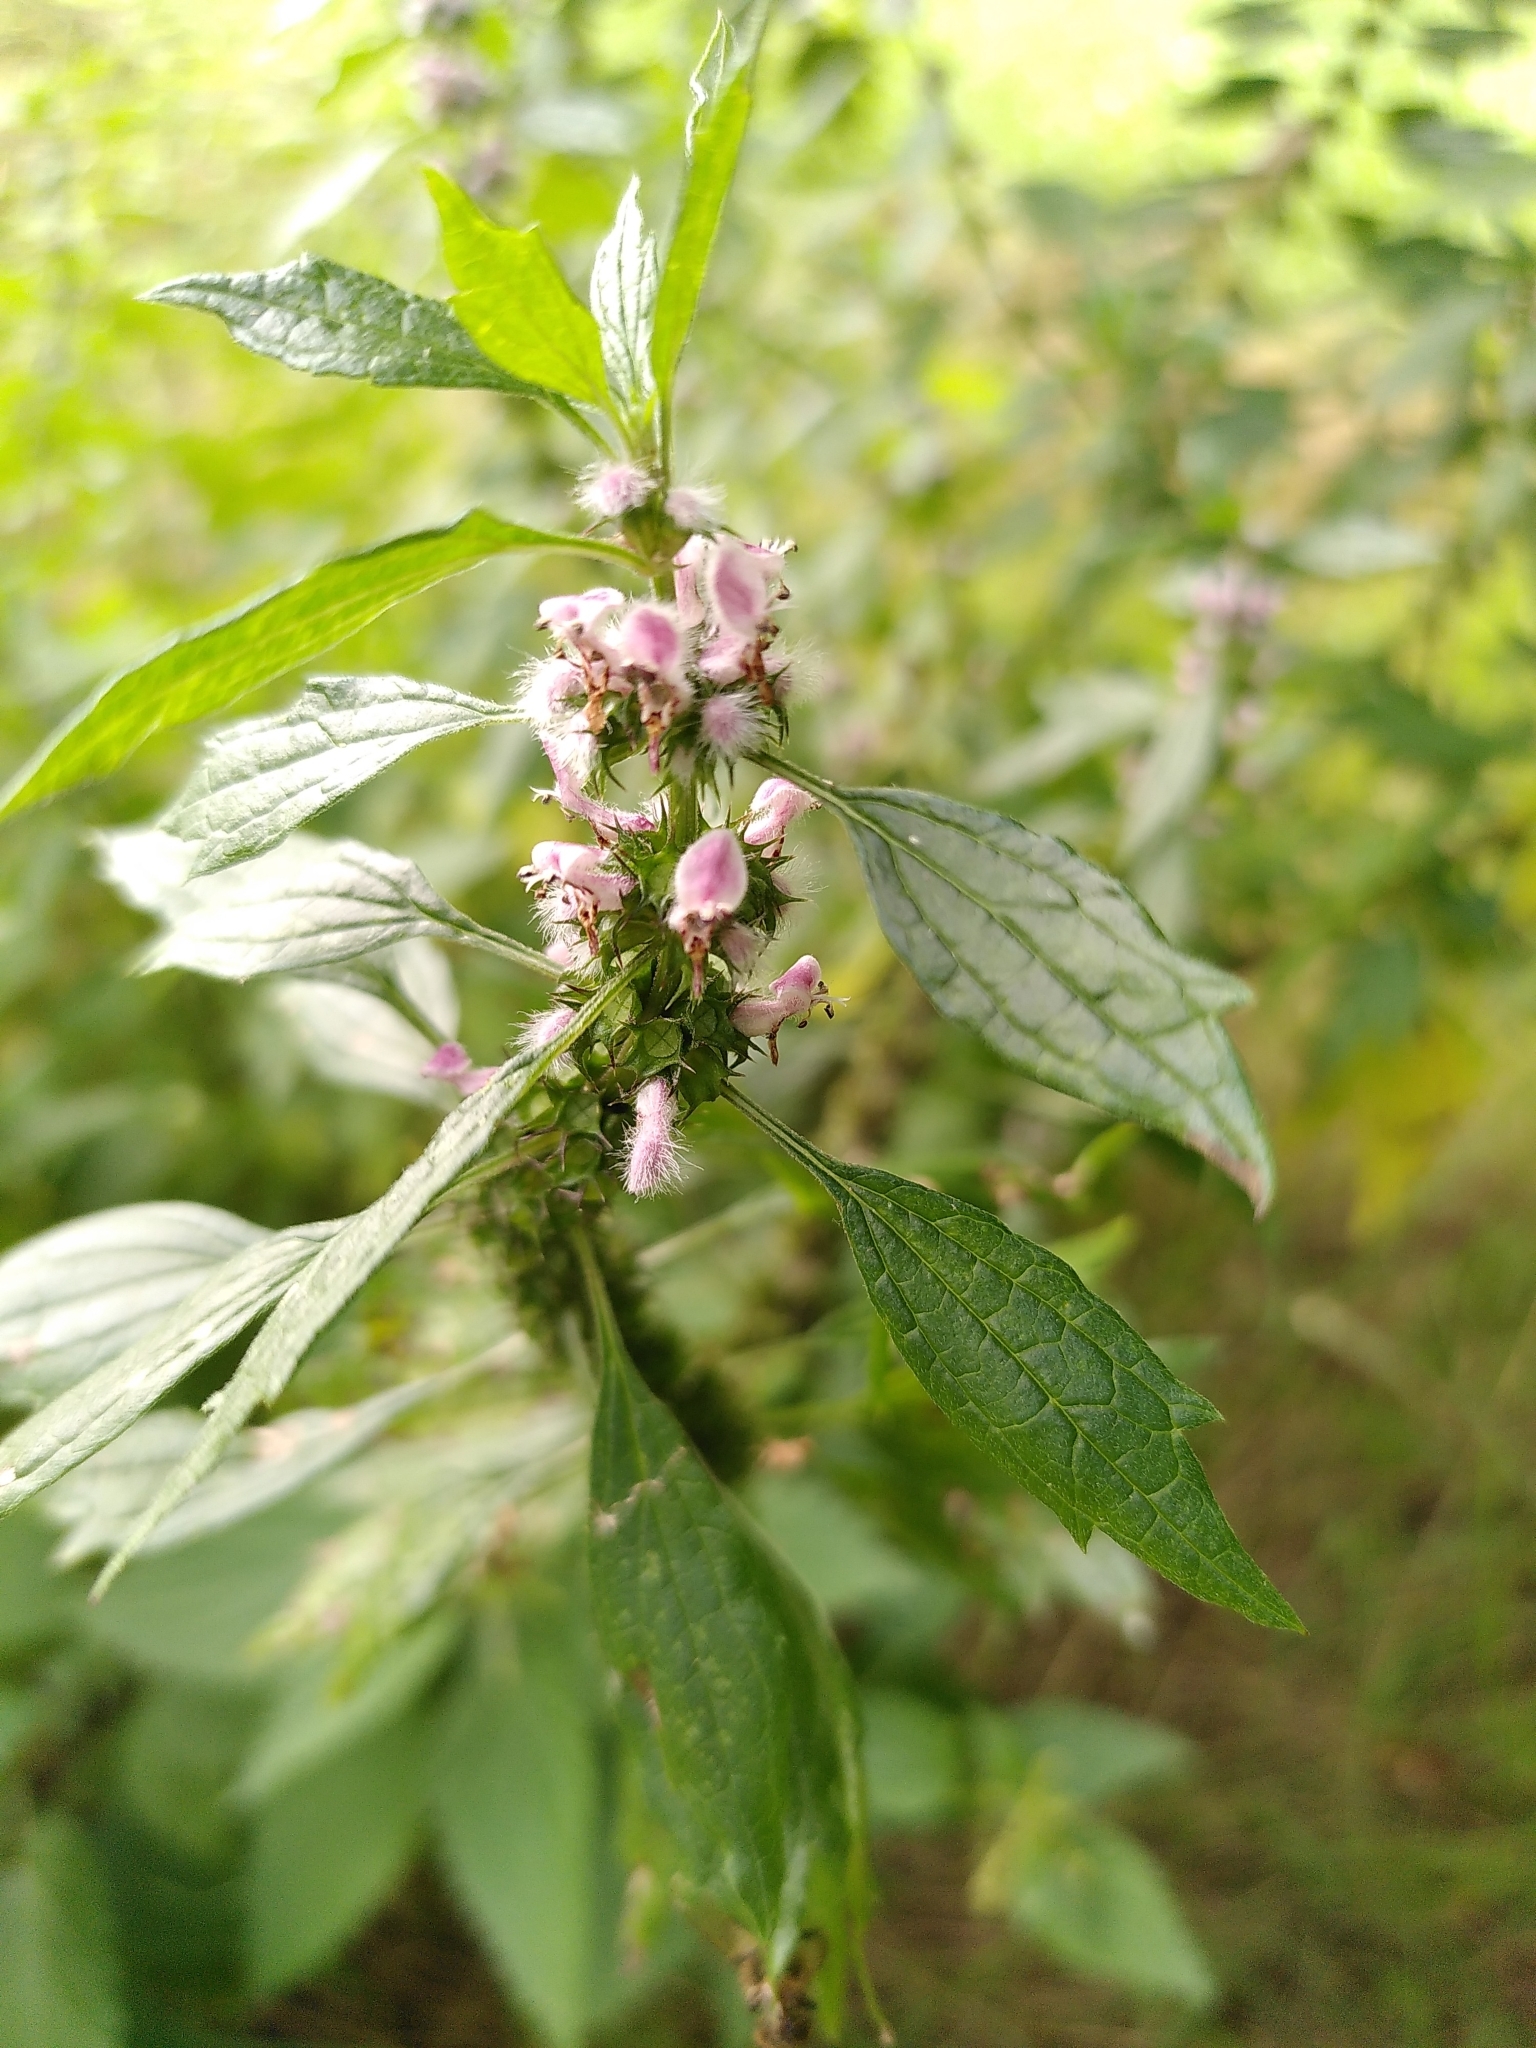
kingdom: Plantae
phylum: Tracheophyta
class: Magnoliopsida
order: Lamiales
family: Lamiaceae
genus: Leonurus
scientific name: Leonurus cardiaca
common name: Motherwort
